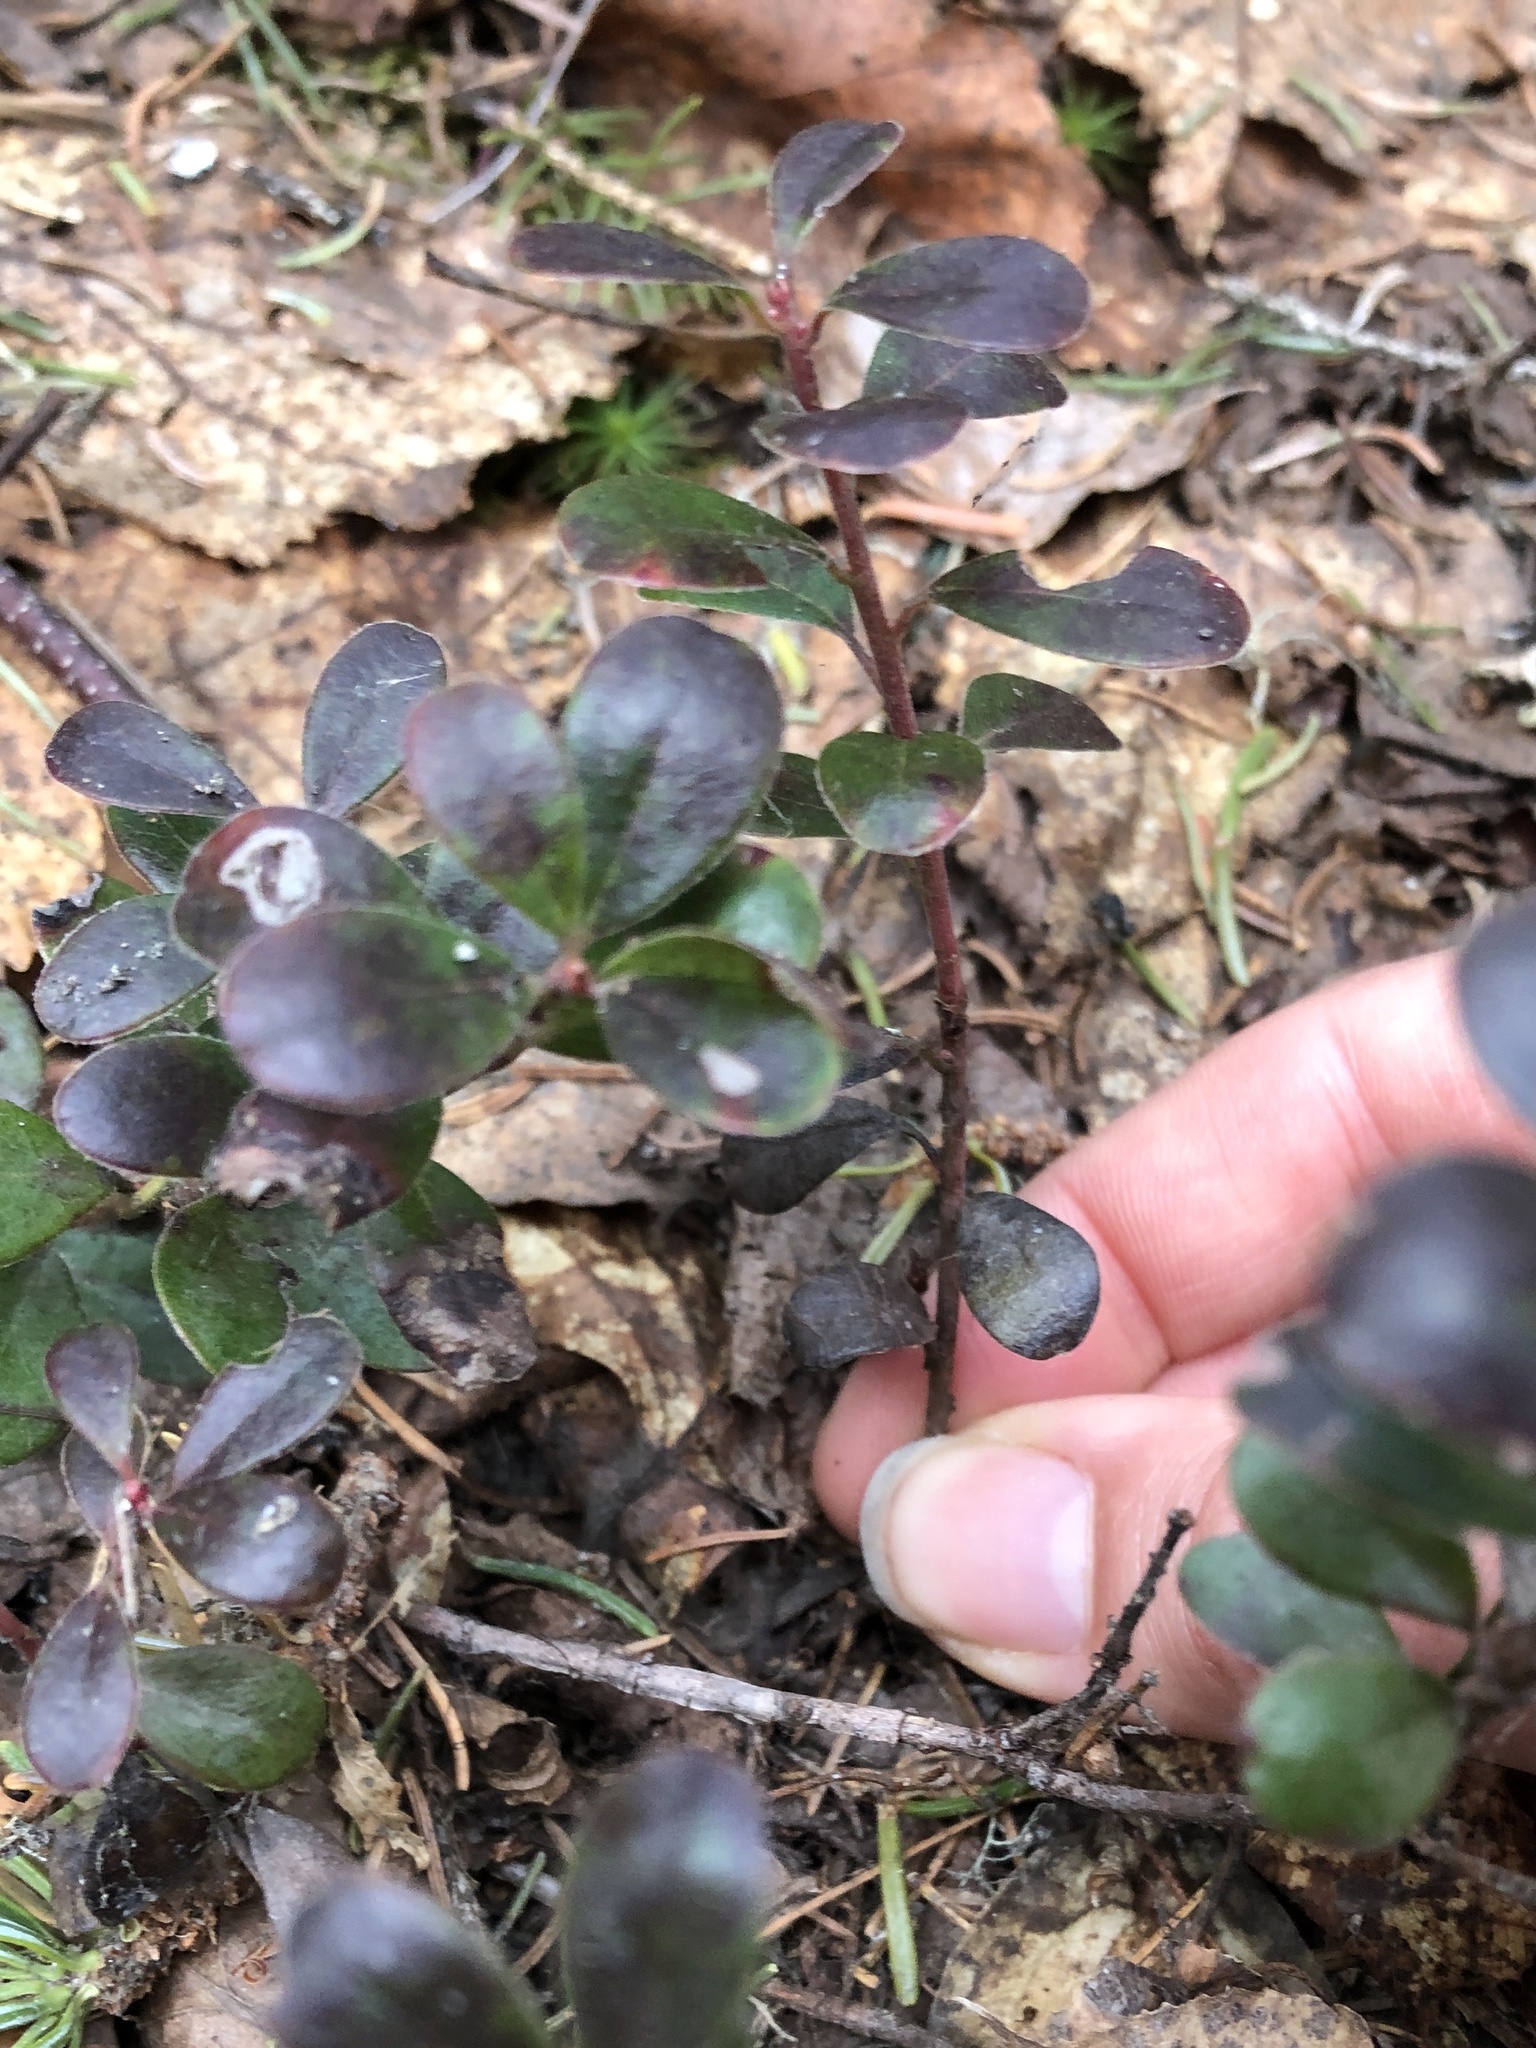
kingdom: Plantae
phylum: Tracheophyta
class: Magnoliopsida
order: Ericales
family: Ericaceae
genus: Arctostaphylos
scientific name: Arctostaphylos uva-ursi
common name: Bearberry
